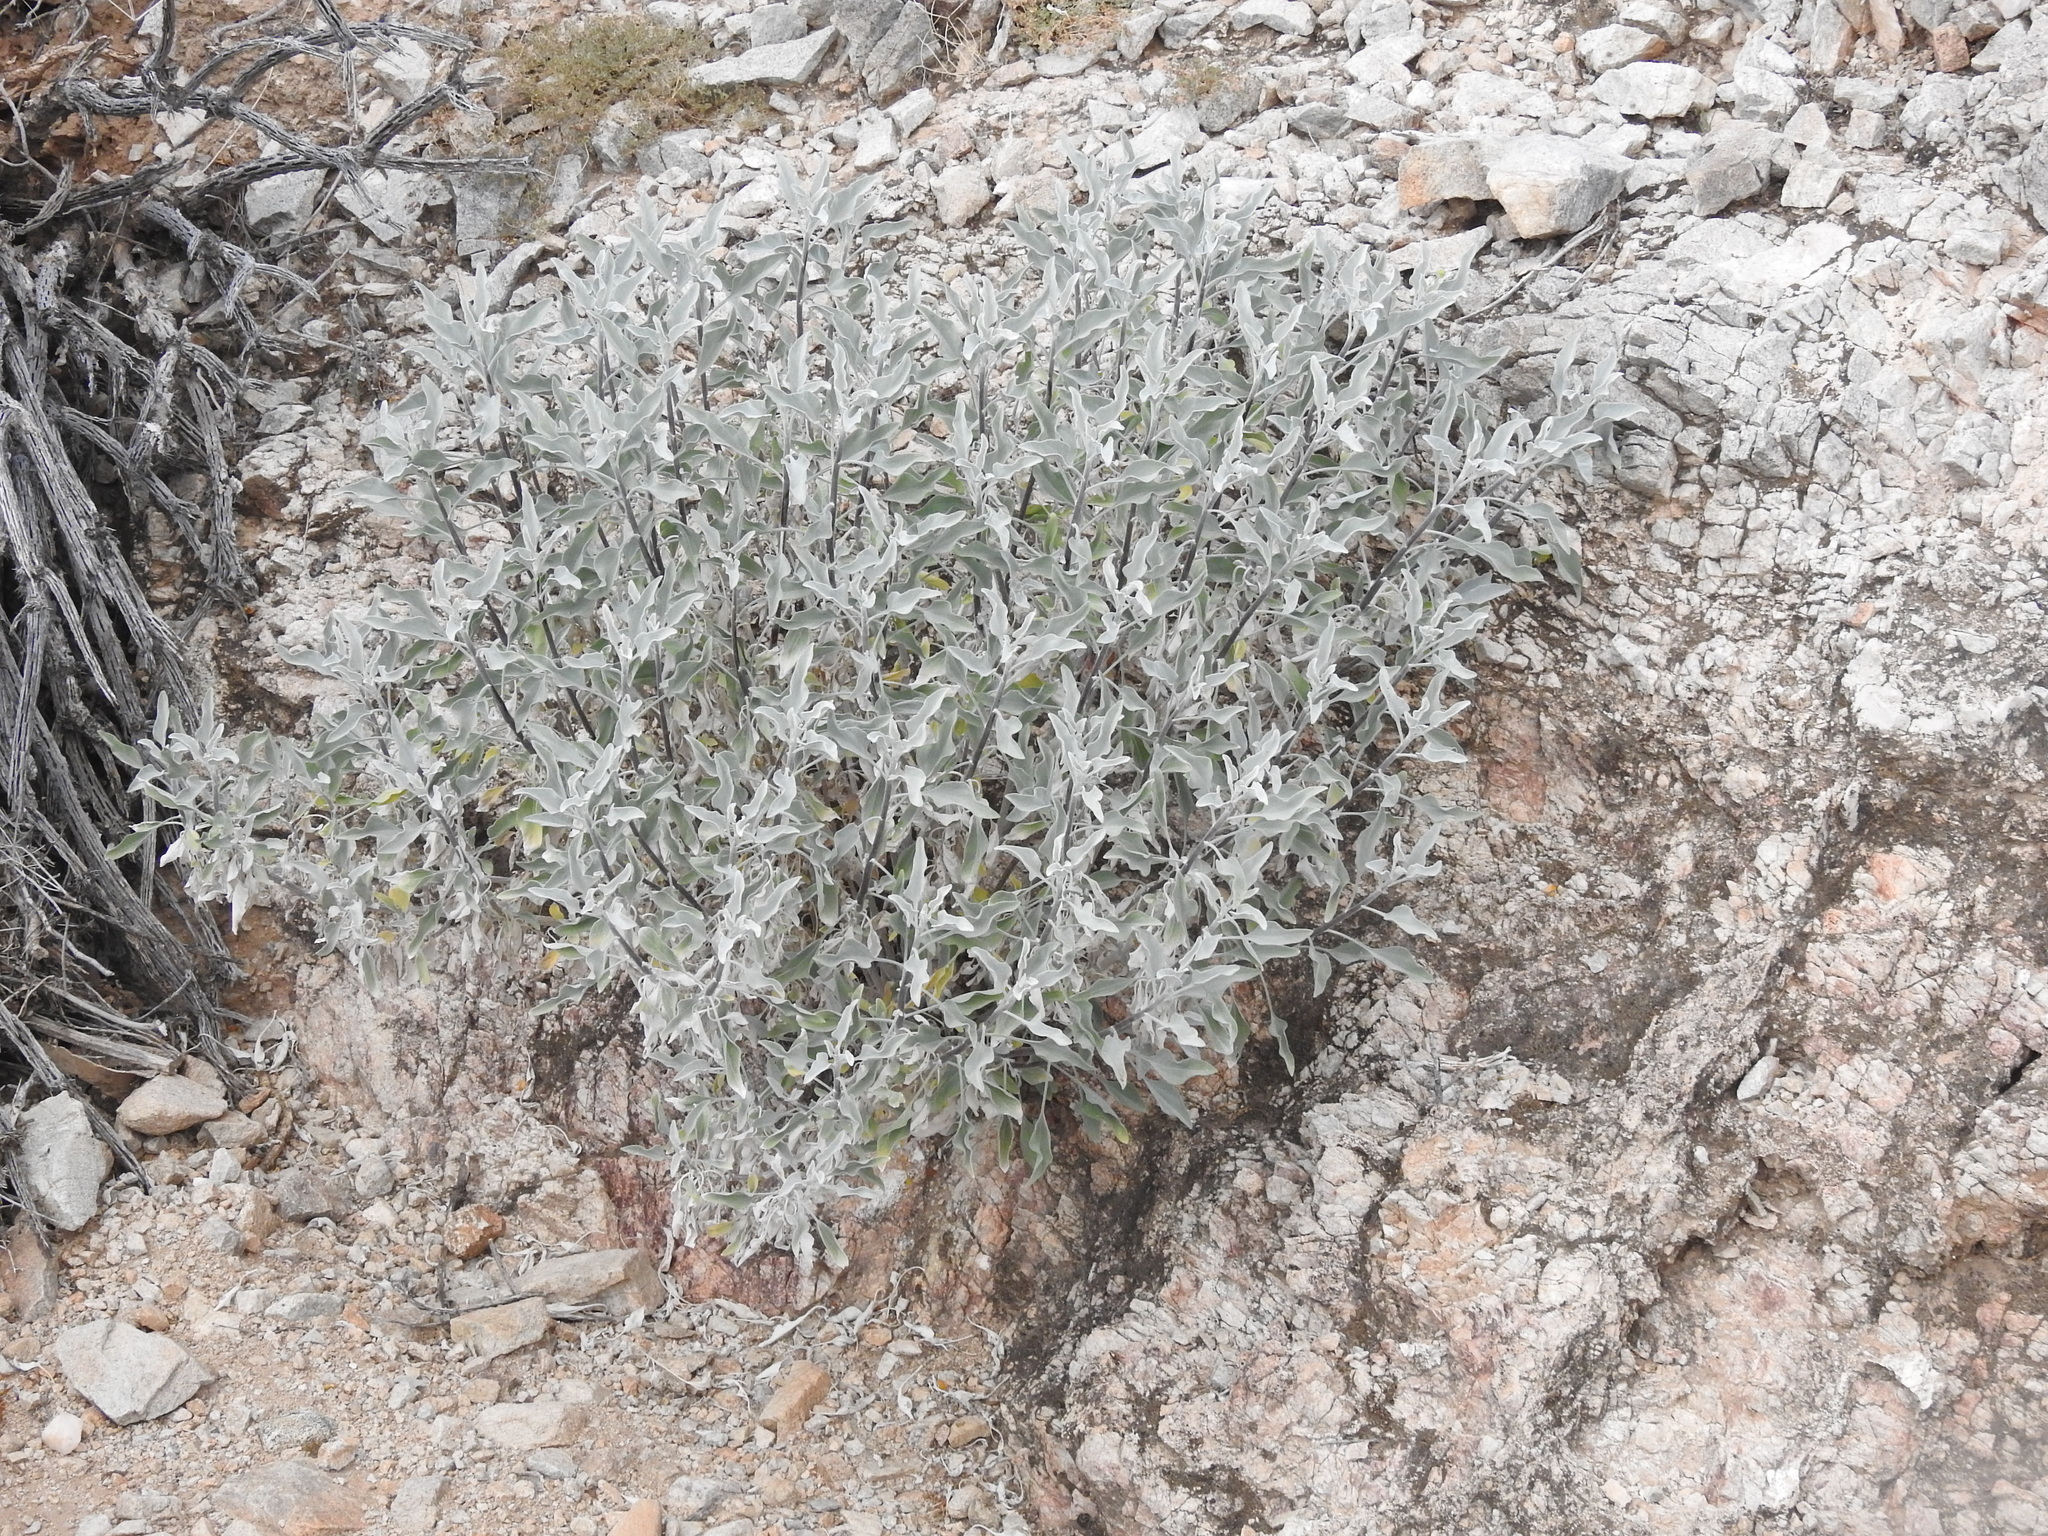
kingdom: Plantae
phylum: Tracheophyta
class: Magnoliopsida
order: Asterales
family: Asteraceae
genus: Encelia
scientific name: Encelia farinosa
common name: Brittlebush
